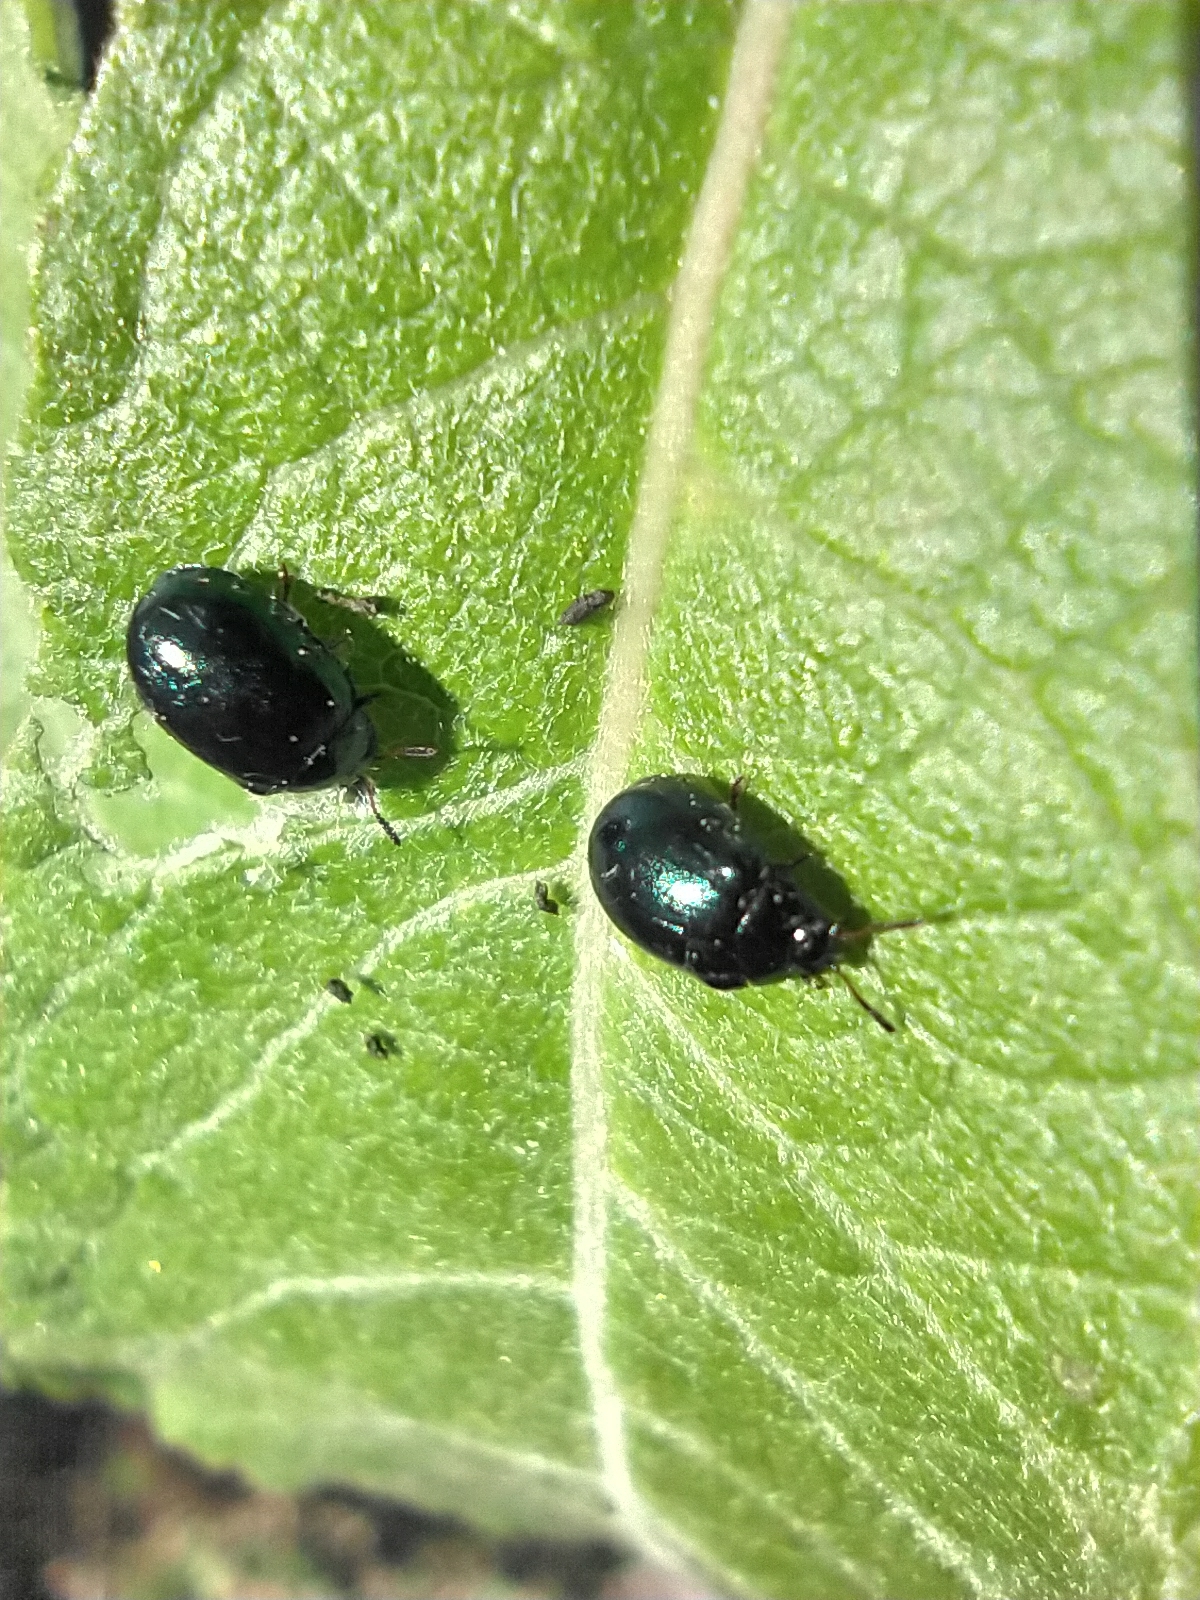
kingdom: Animalia
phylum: Arthropoda
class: Insecta
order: Coleoptera
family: Chrysomelidae
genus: Plagiodera
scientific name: Plagiodera versicolora
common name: Imported willow leaf beetle
